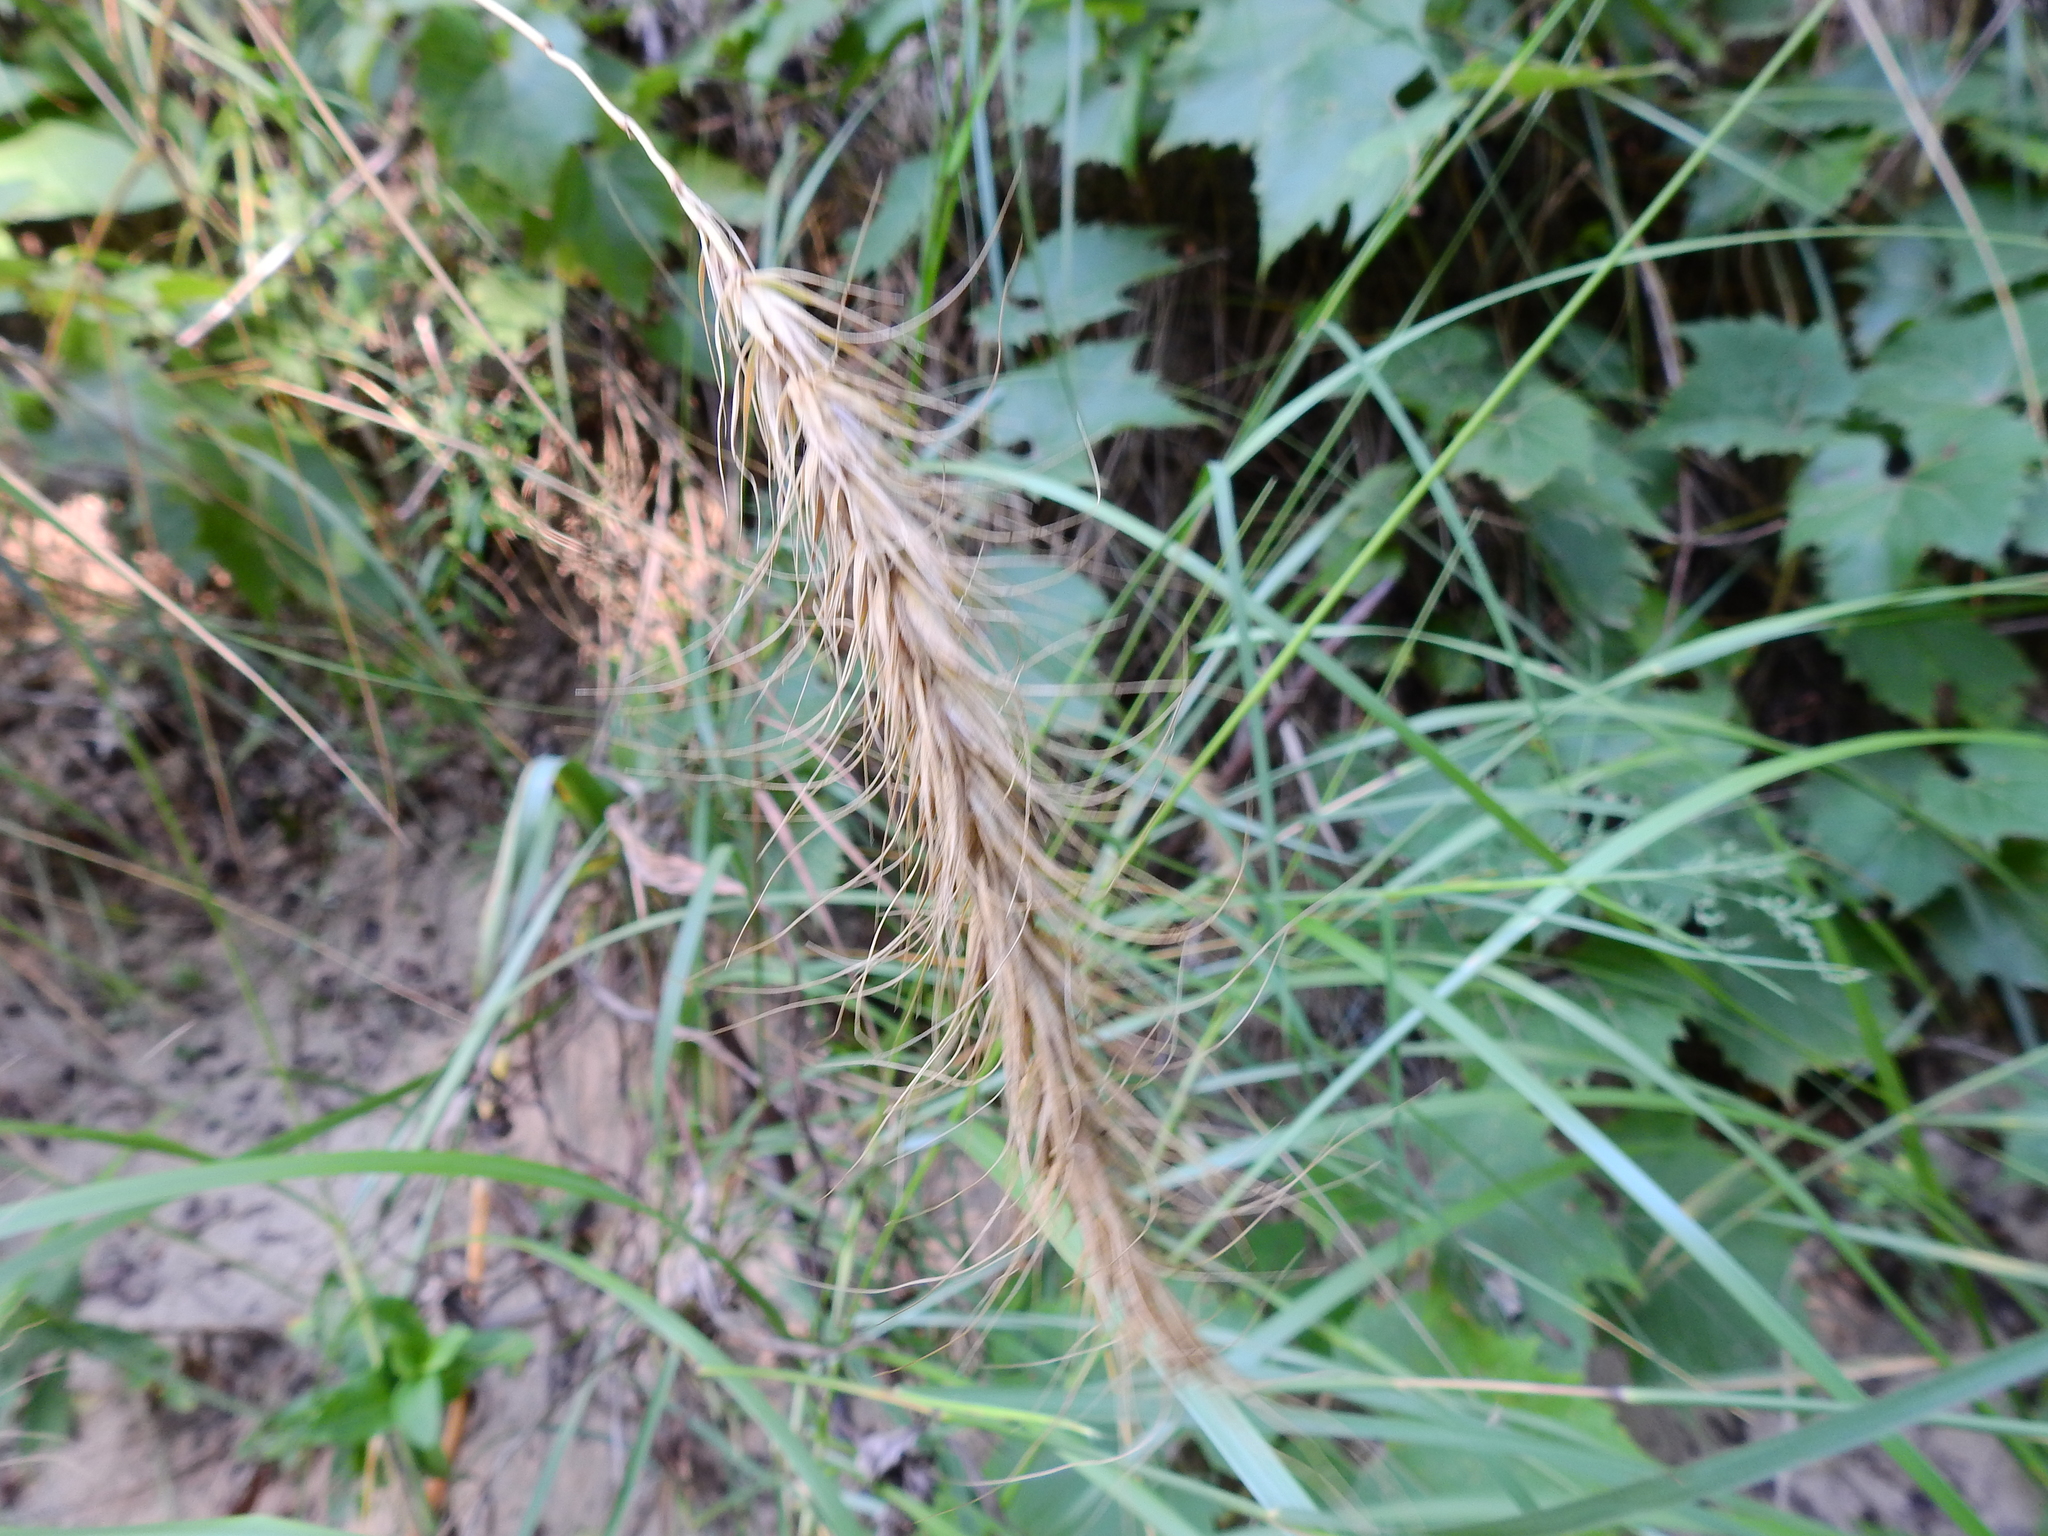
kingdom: Plantae
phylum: Tracheophyta
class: Liliopsida
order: Poales
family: Poaceae
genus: Elymus
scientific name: Elymus canadensis
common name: Canada wild rye
